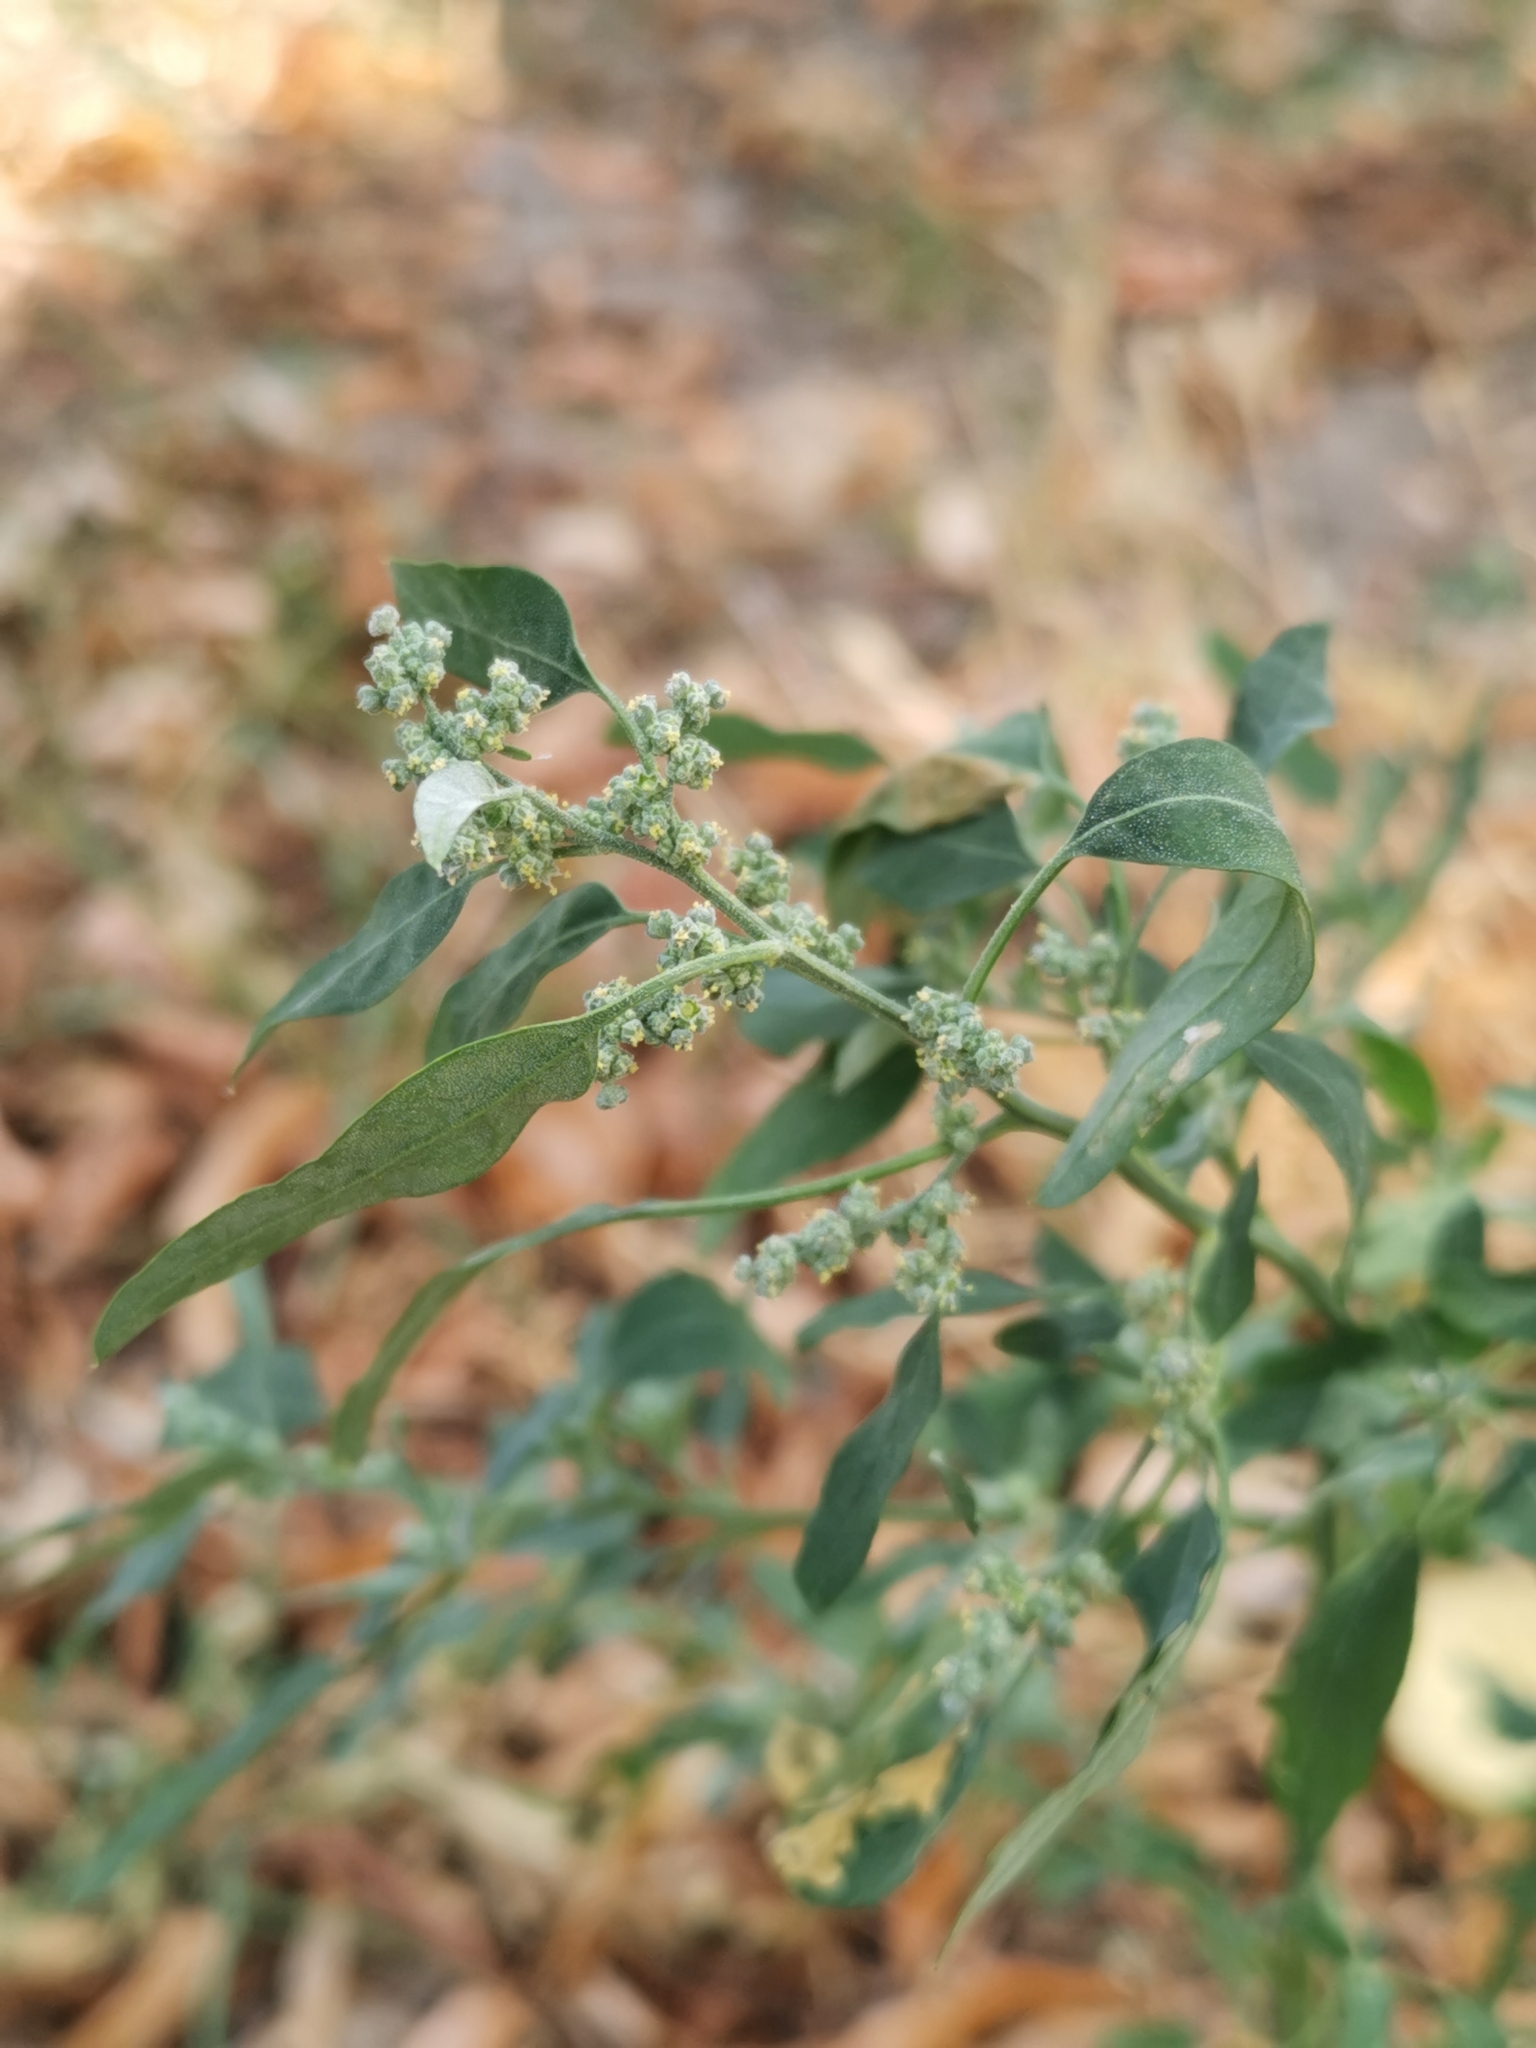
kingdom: Plantae
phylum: Tracheophyta
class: Magnoliopsida
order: Caryophyllales
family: Amaranthaceae
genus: Chenopodium
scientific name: Chenopodium album
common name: Fat-hen
